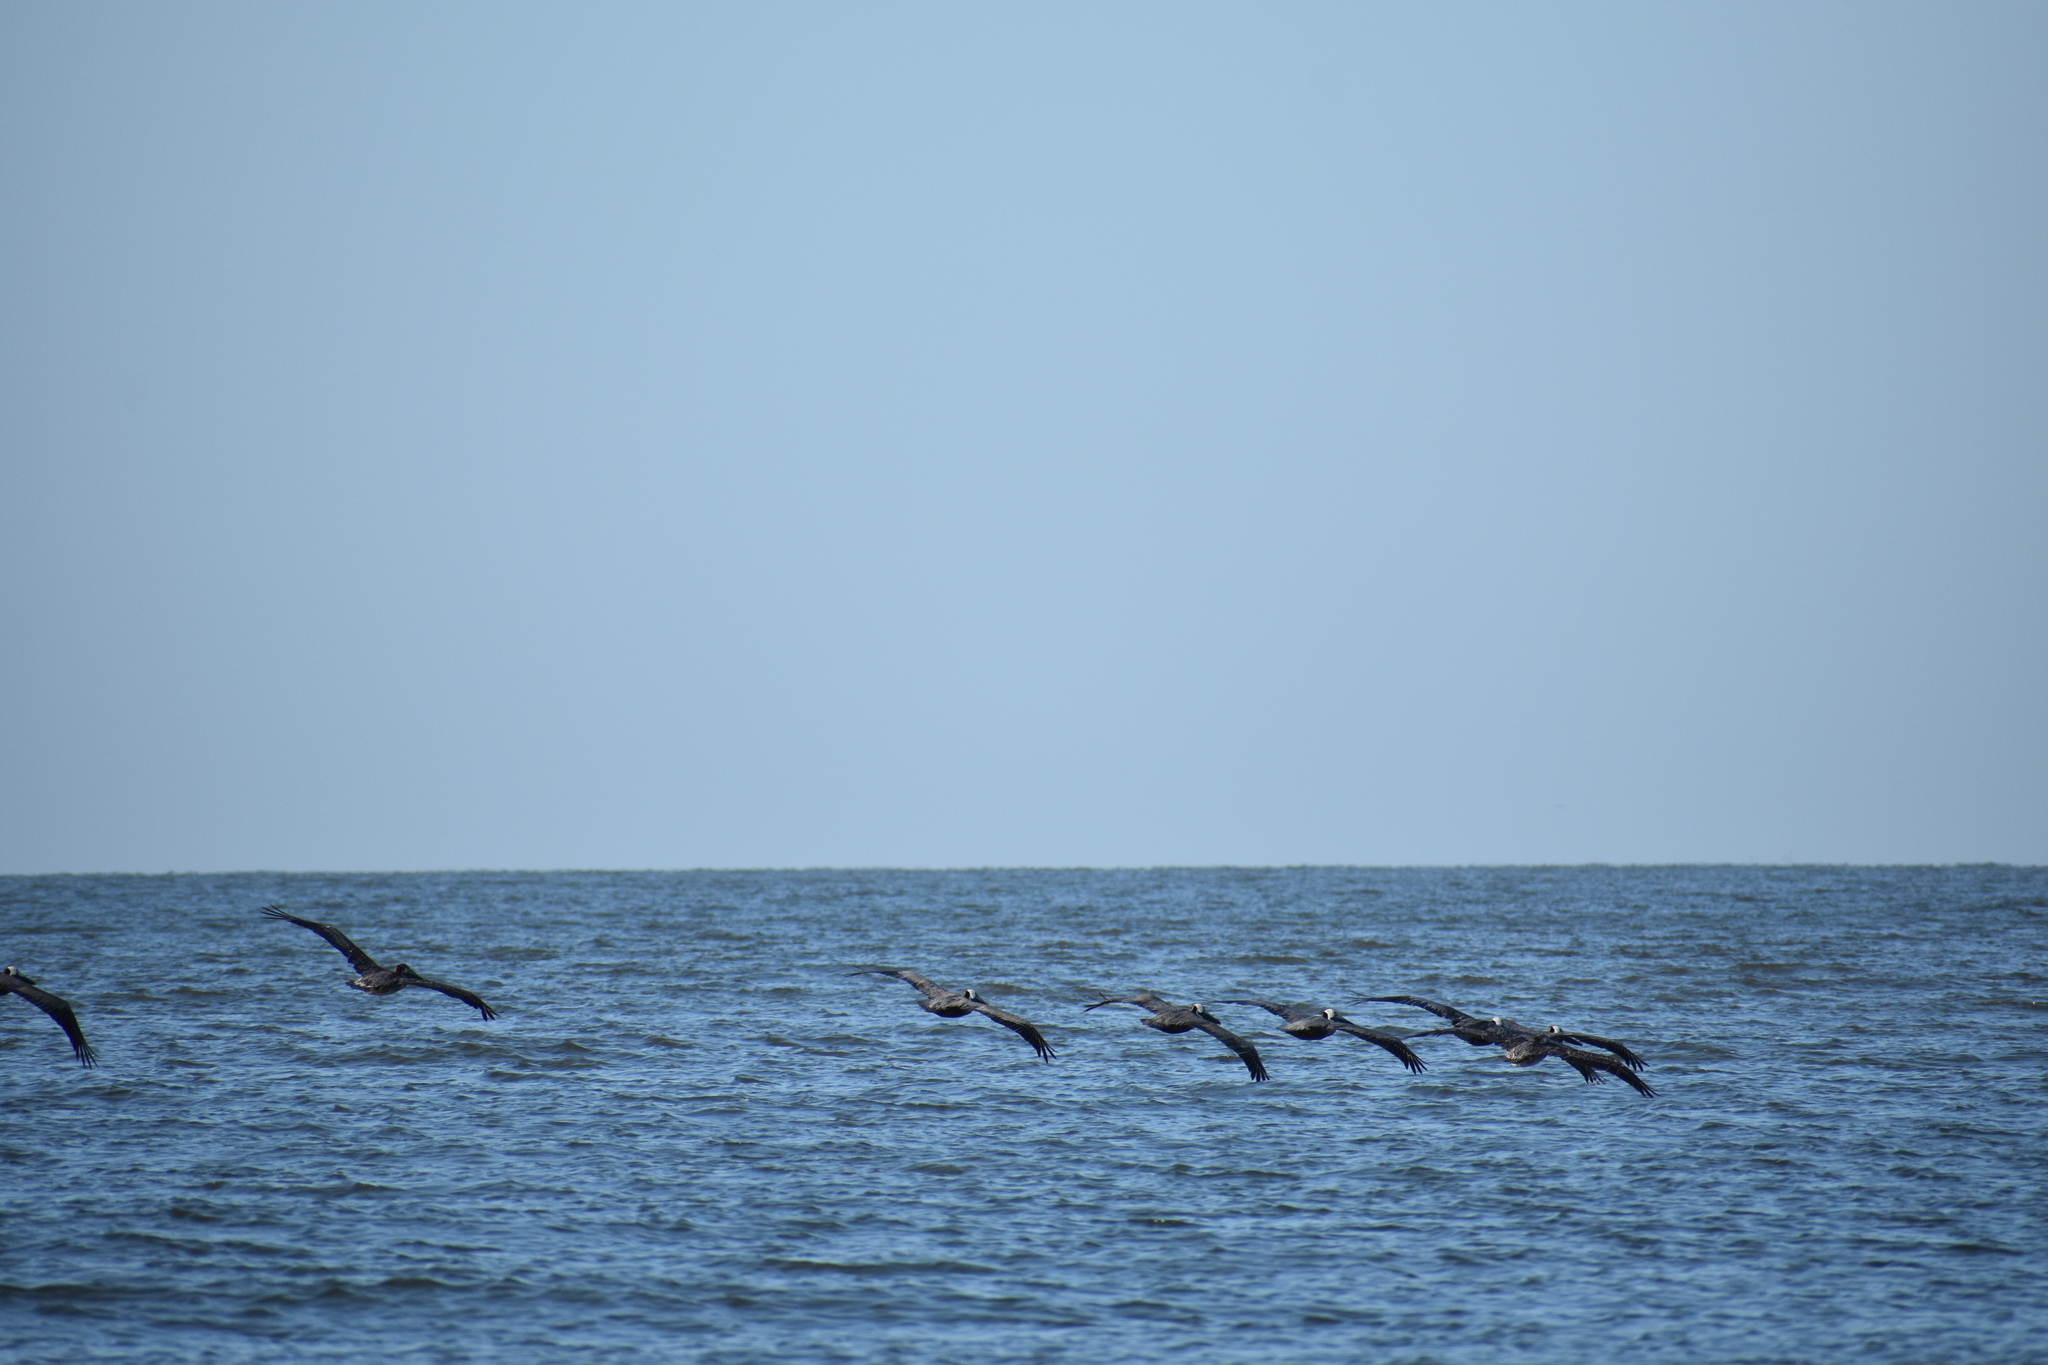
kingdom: Animalia
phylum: Chordata
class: Aves
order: Pelecaniformes
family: Pelecanidae
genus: Pelecanus
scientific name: Pelecanus occidentalis
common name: Brown pelican
